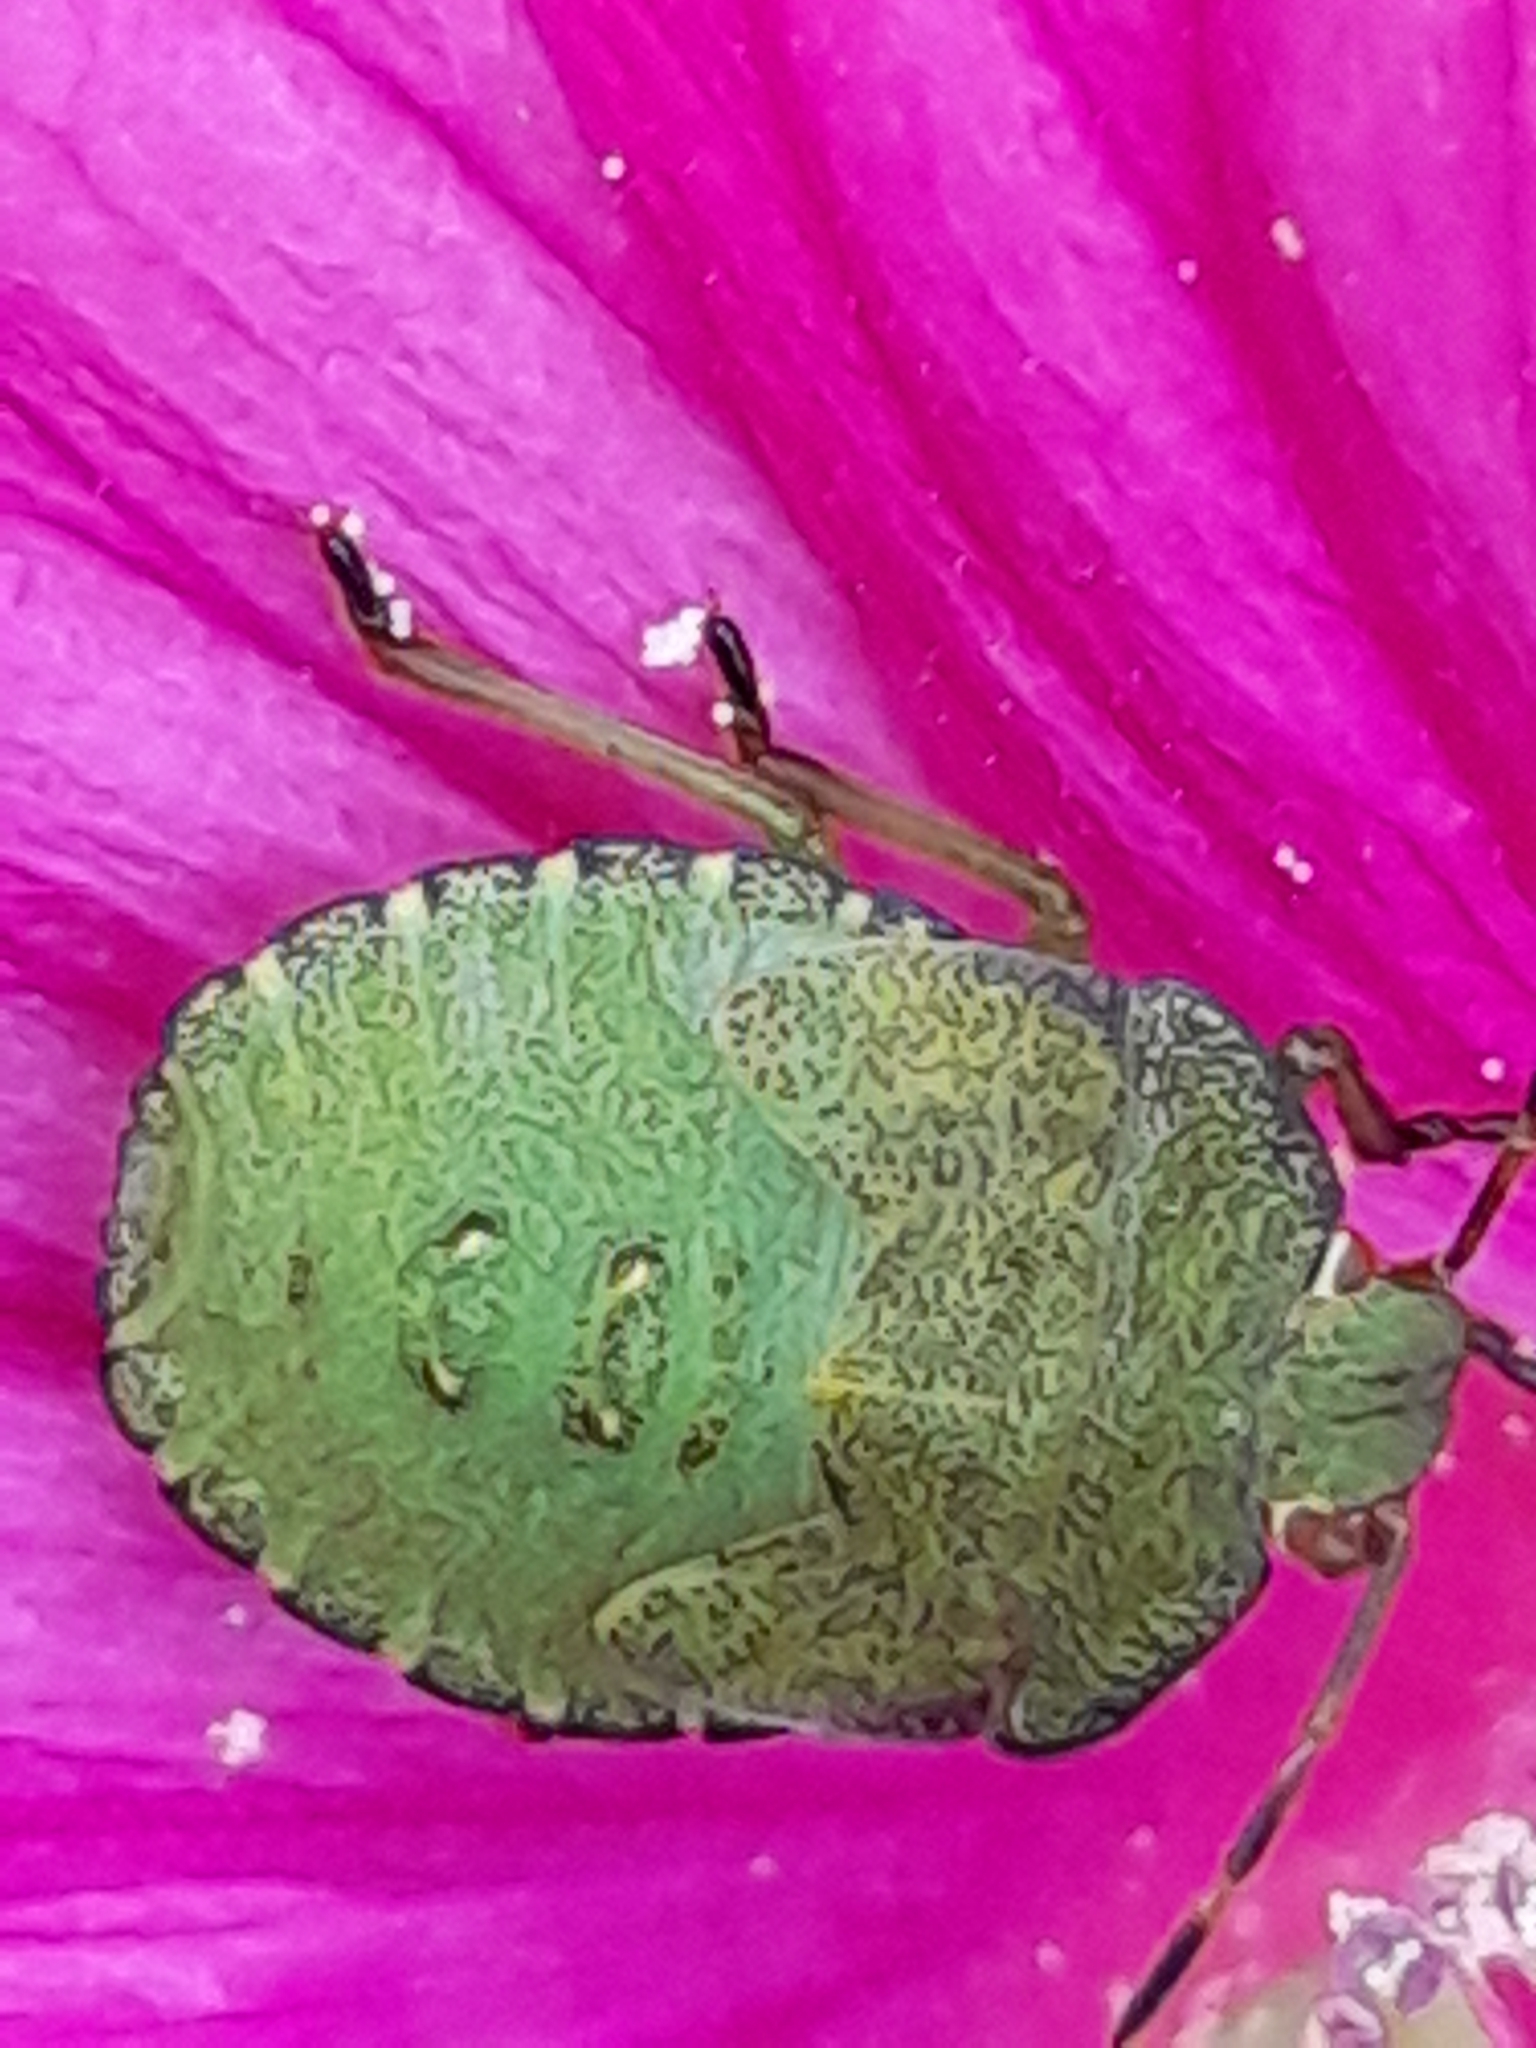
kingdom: Animalia
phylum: Arthropoda
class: Insecta
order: Hemiptera
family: Pentatomidae
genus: Palomena
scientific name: Palomena prasina
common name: Green shieldbug
